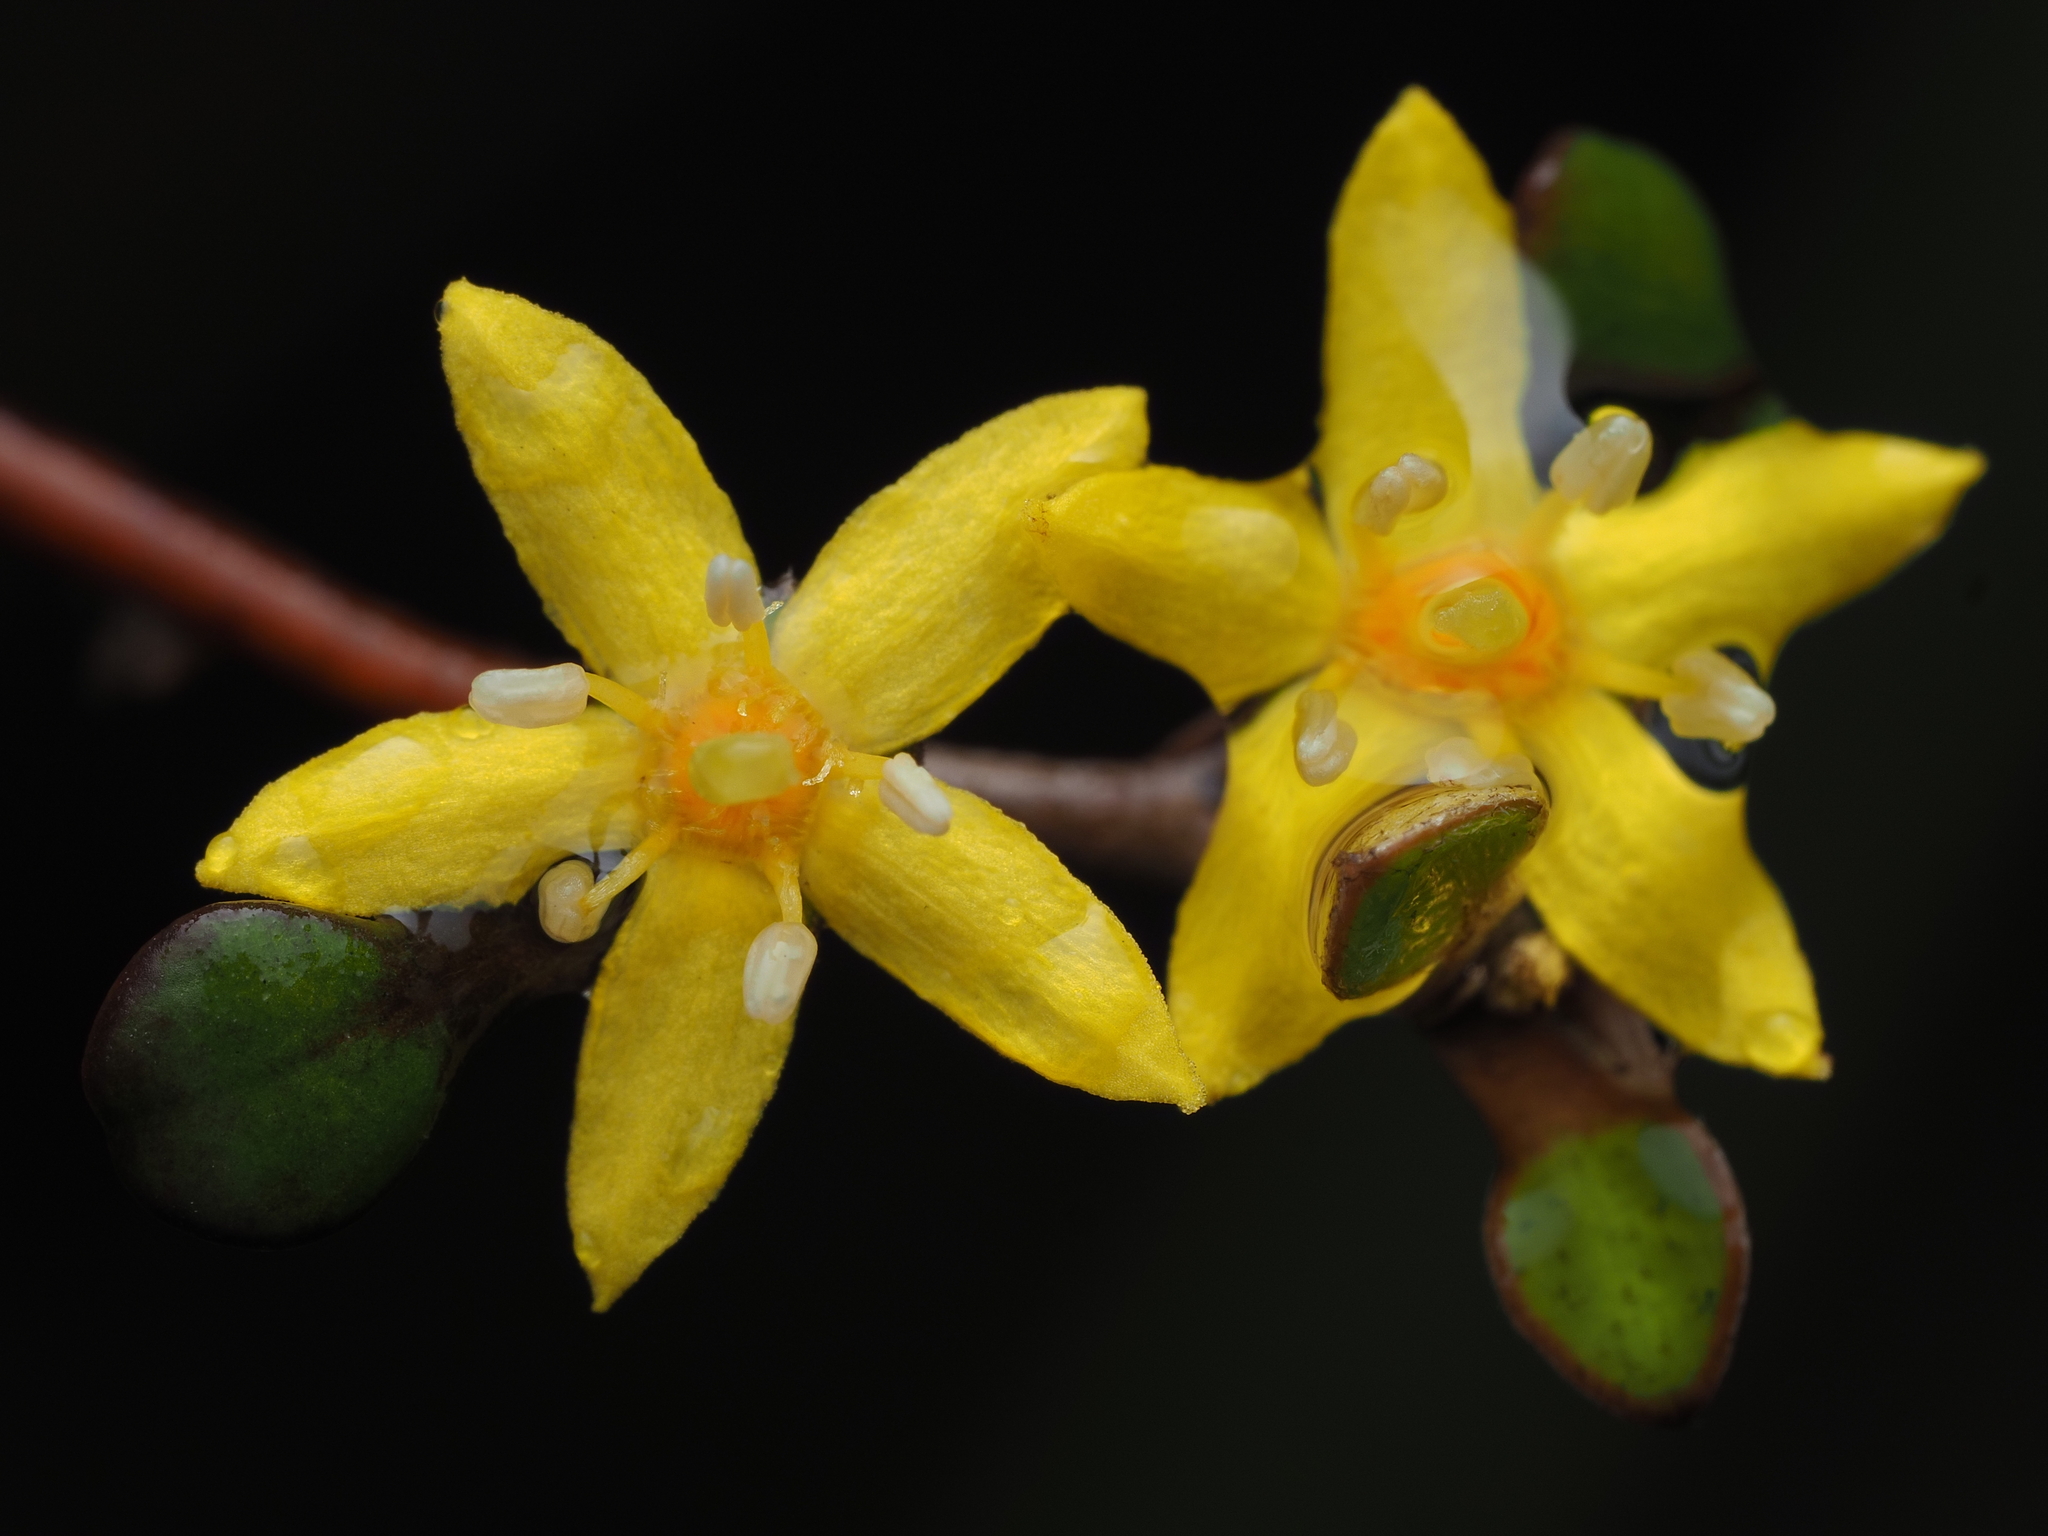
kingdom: Plantae
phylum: Tracheophyta
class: Magnoliopsida
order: Asterales
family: Argophyllaceae
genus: Corokia
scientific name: Corokia cotoneaster
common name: Wire nettingbush
